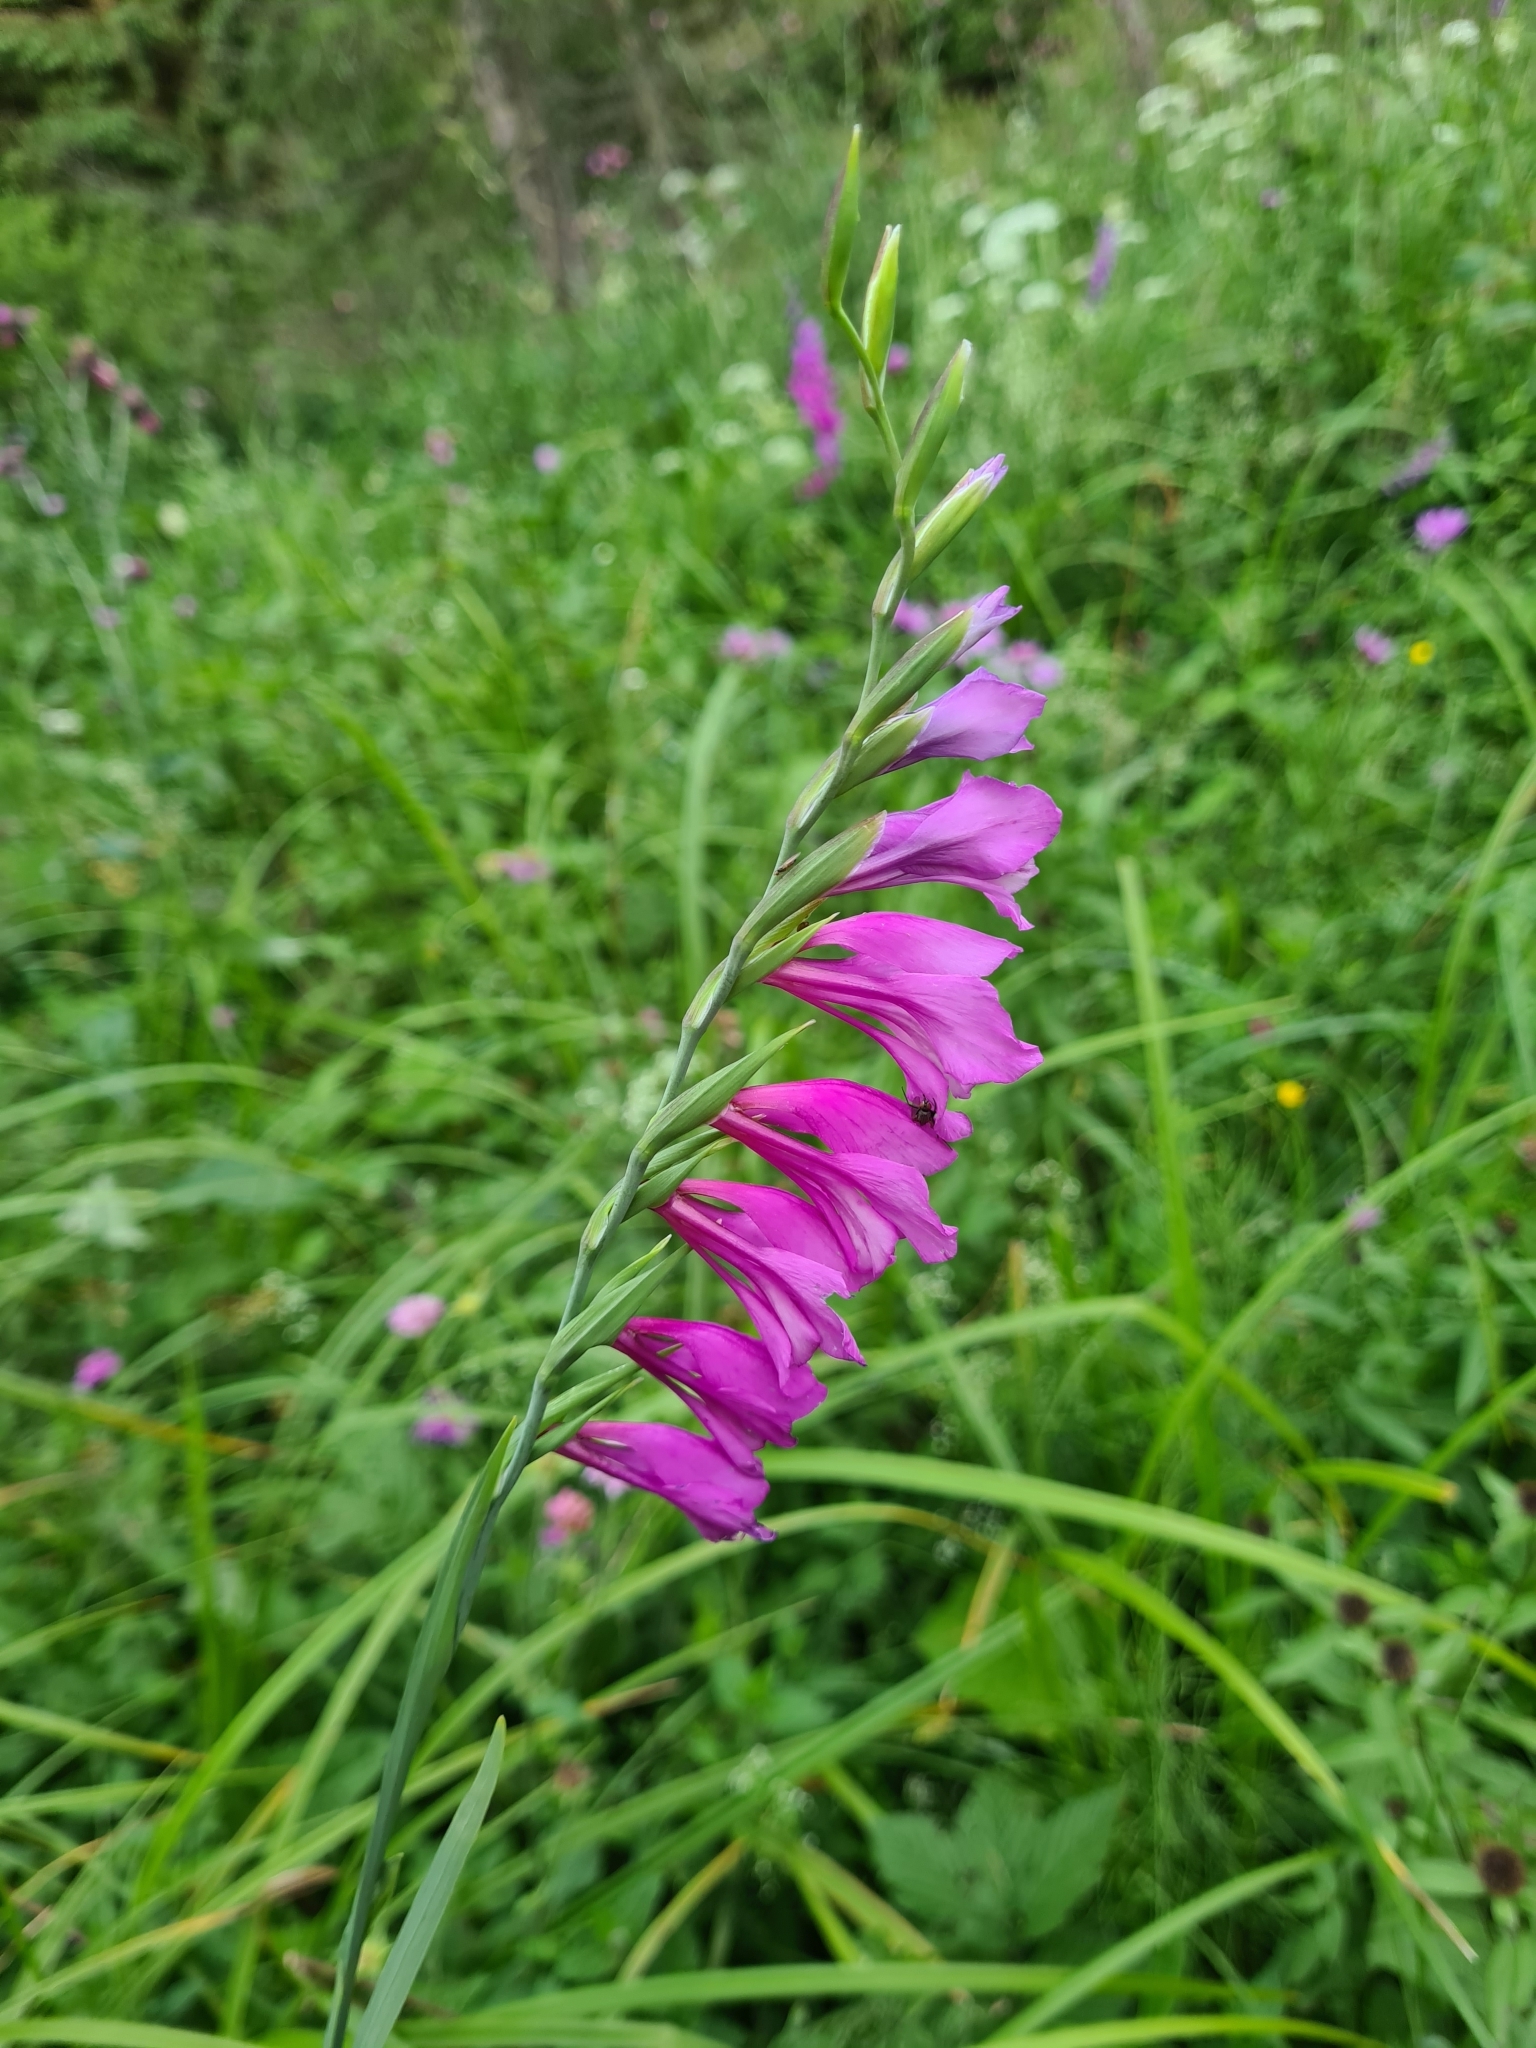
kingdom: Plantae
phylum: Tracheophyta
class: Liliopsida
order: Asparagales
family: Iridaceae
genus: Gladiolus
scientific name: Gladiolus imbricatus
